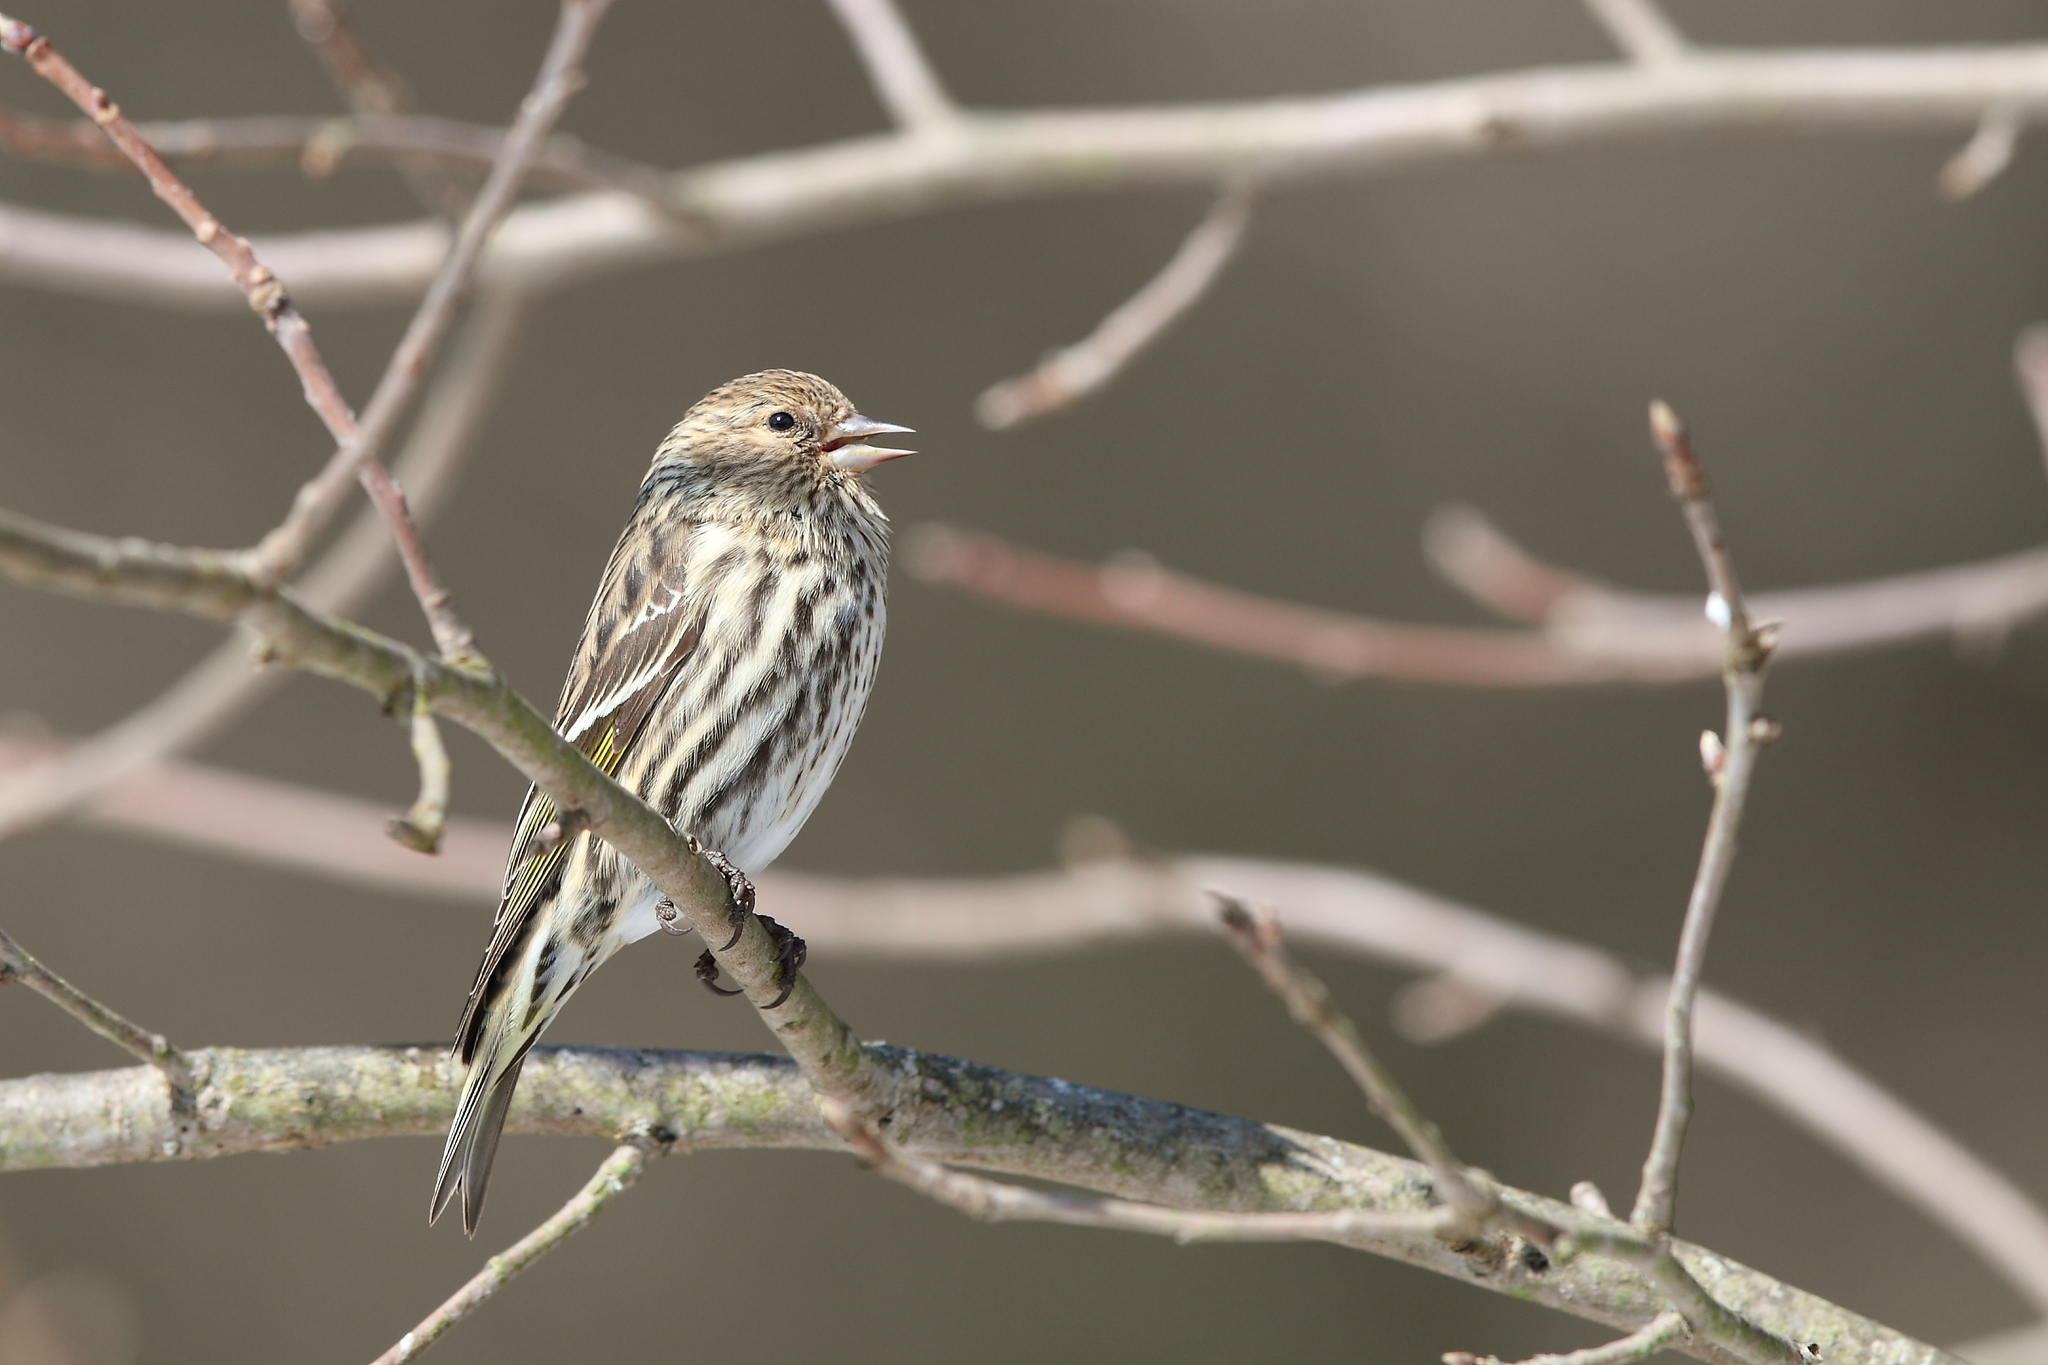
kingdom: Animalia
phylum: Chordata
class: Aves
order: Passeriformes
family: Fringillidae
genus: Spinus
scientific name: Spinus pinus
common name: Pine siskin
